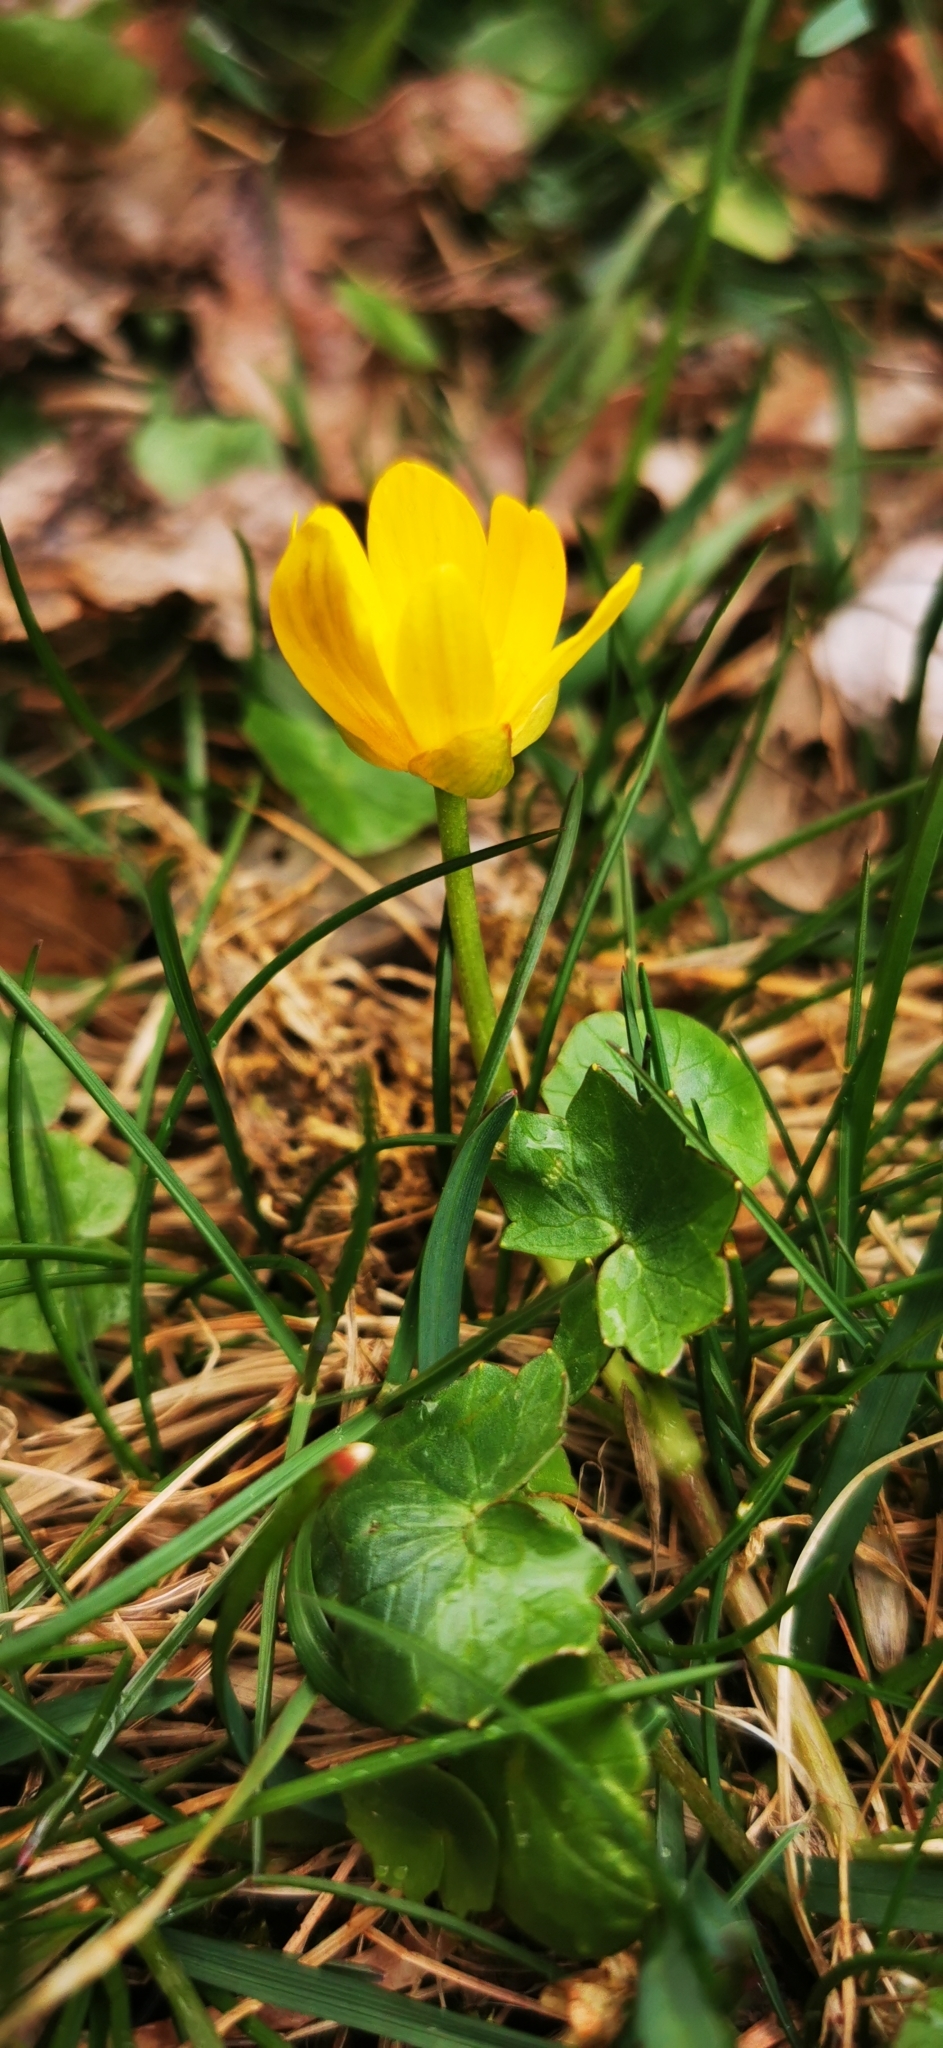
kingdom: Plantae
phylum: Tracheophyta
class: Magnoliopsida
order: Ranunculales
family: Ranunculaceae
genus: Ficaria
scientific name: Ficaria verna
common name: Lesser celandine
